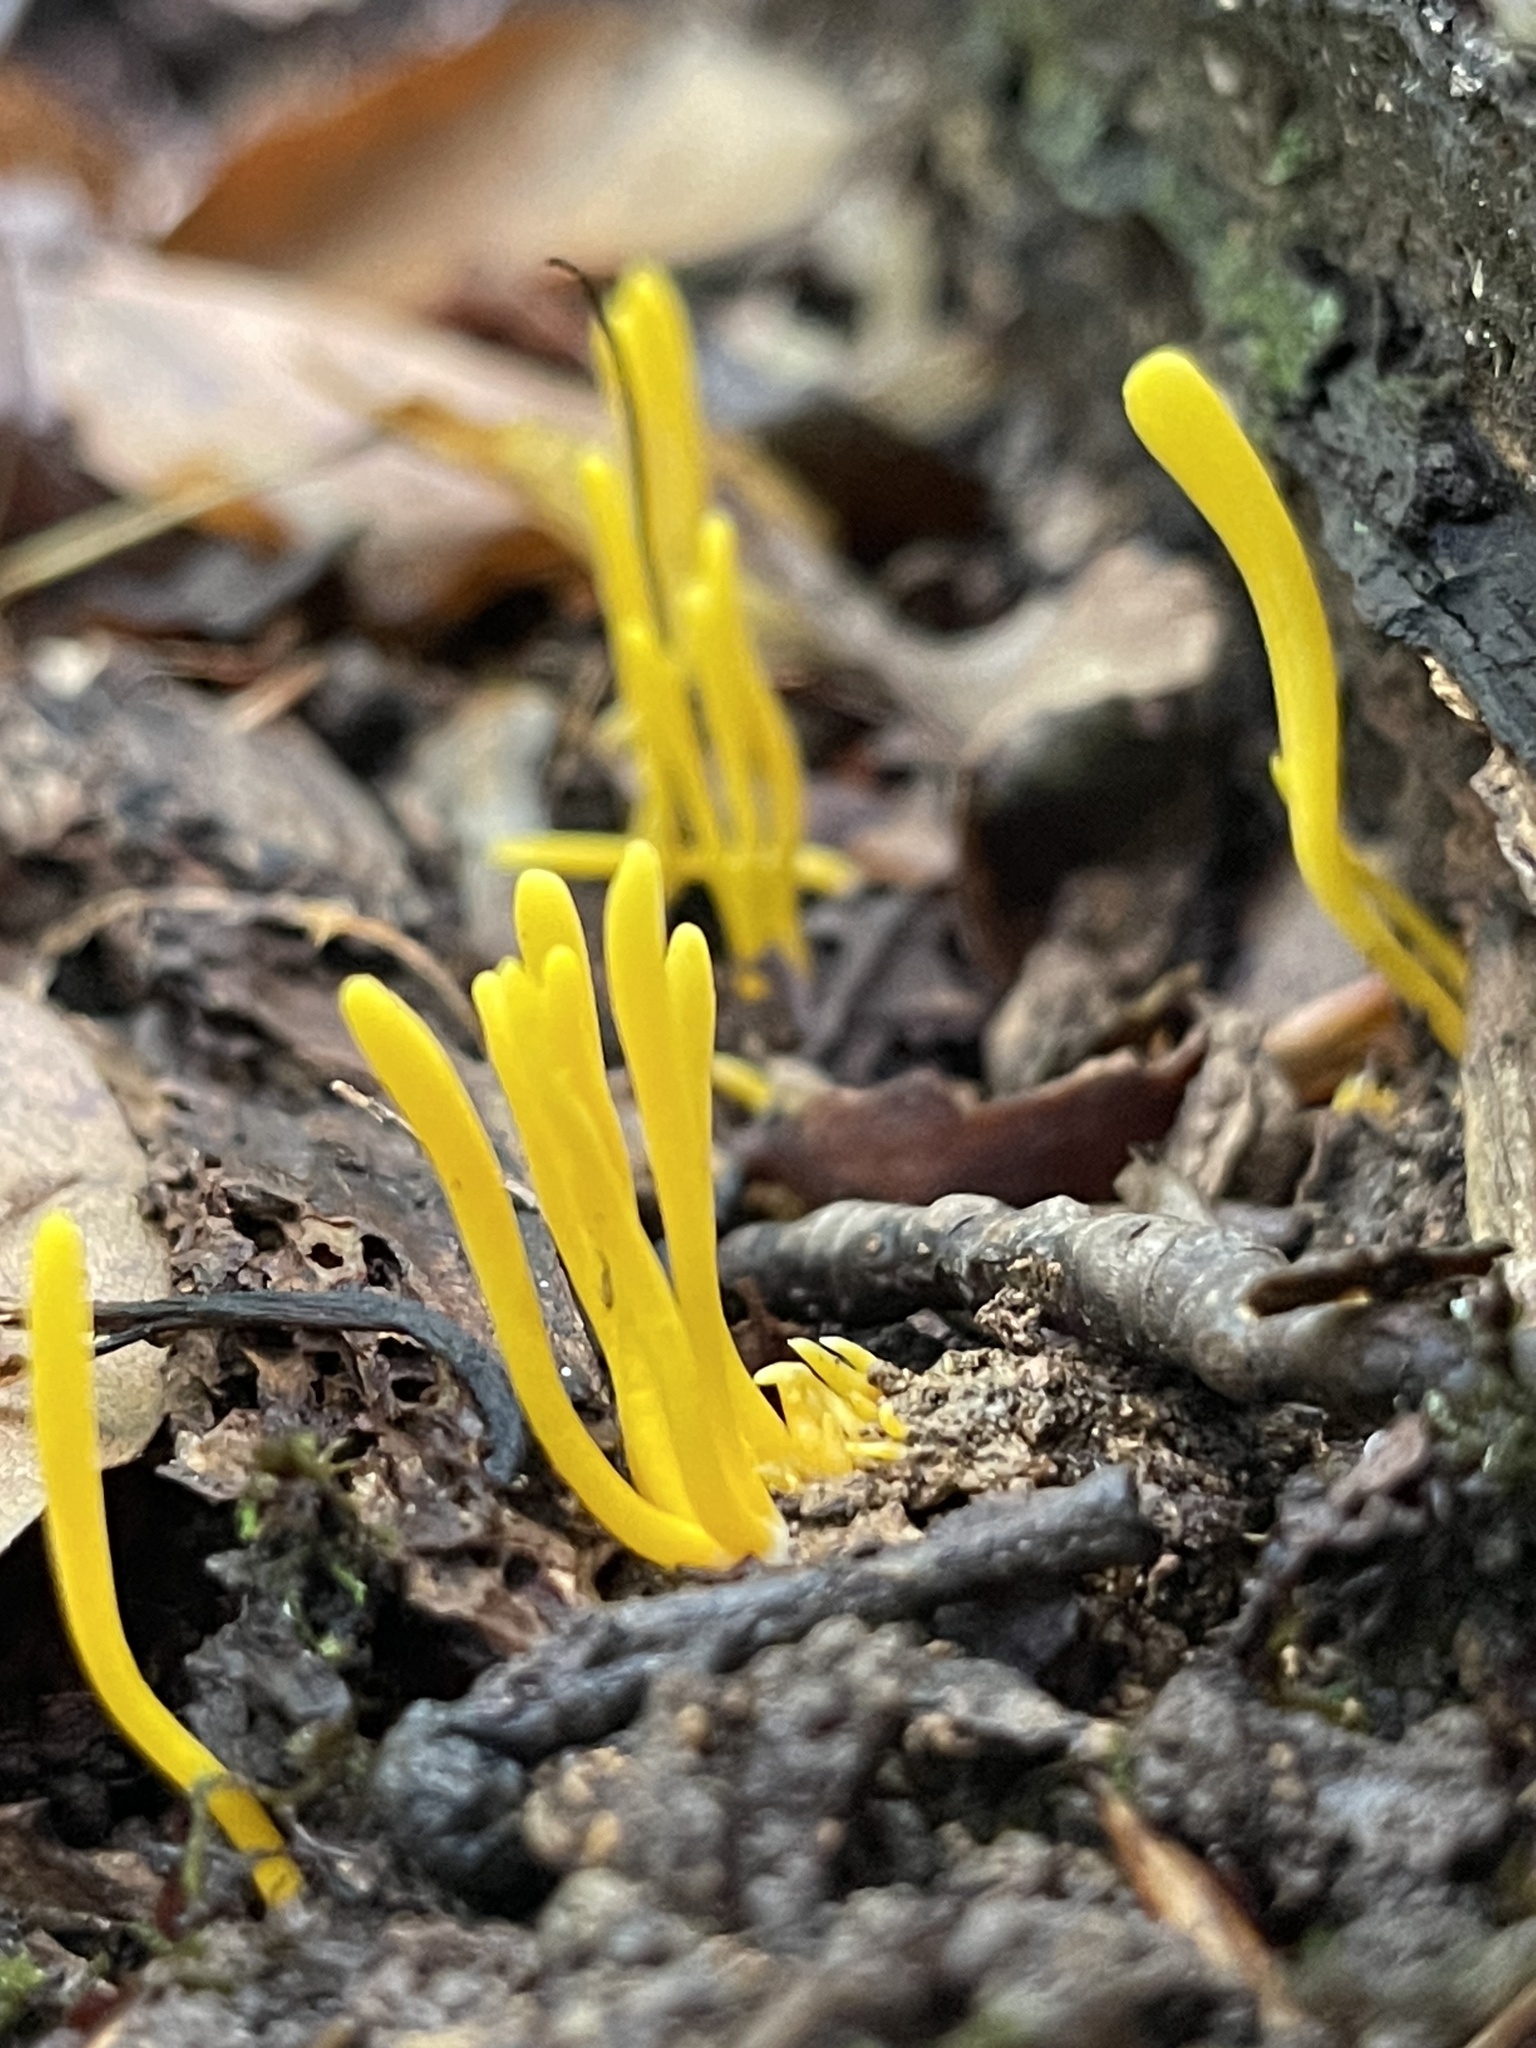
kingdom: Fungi
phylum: Basidiomycota
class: Agaricomycetes
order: Agaricales
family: Clavariaceae
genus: Clavulinopsis
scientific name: Clavulinopsis fusiformis
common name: Golden spindles
